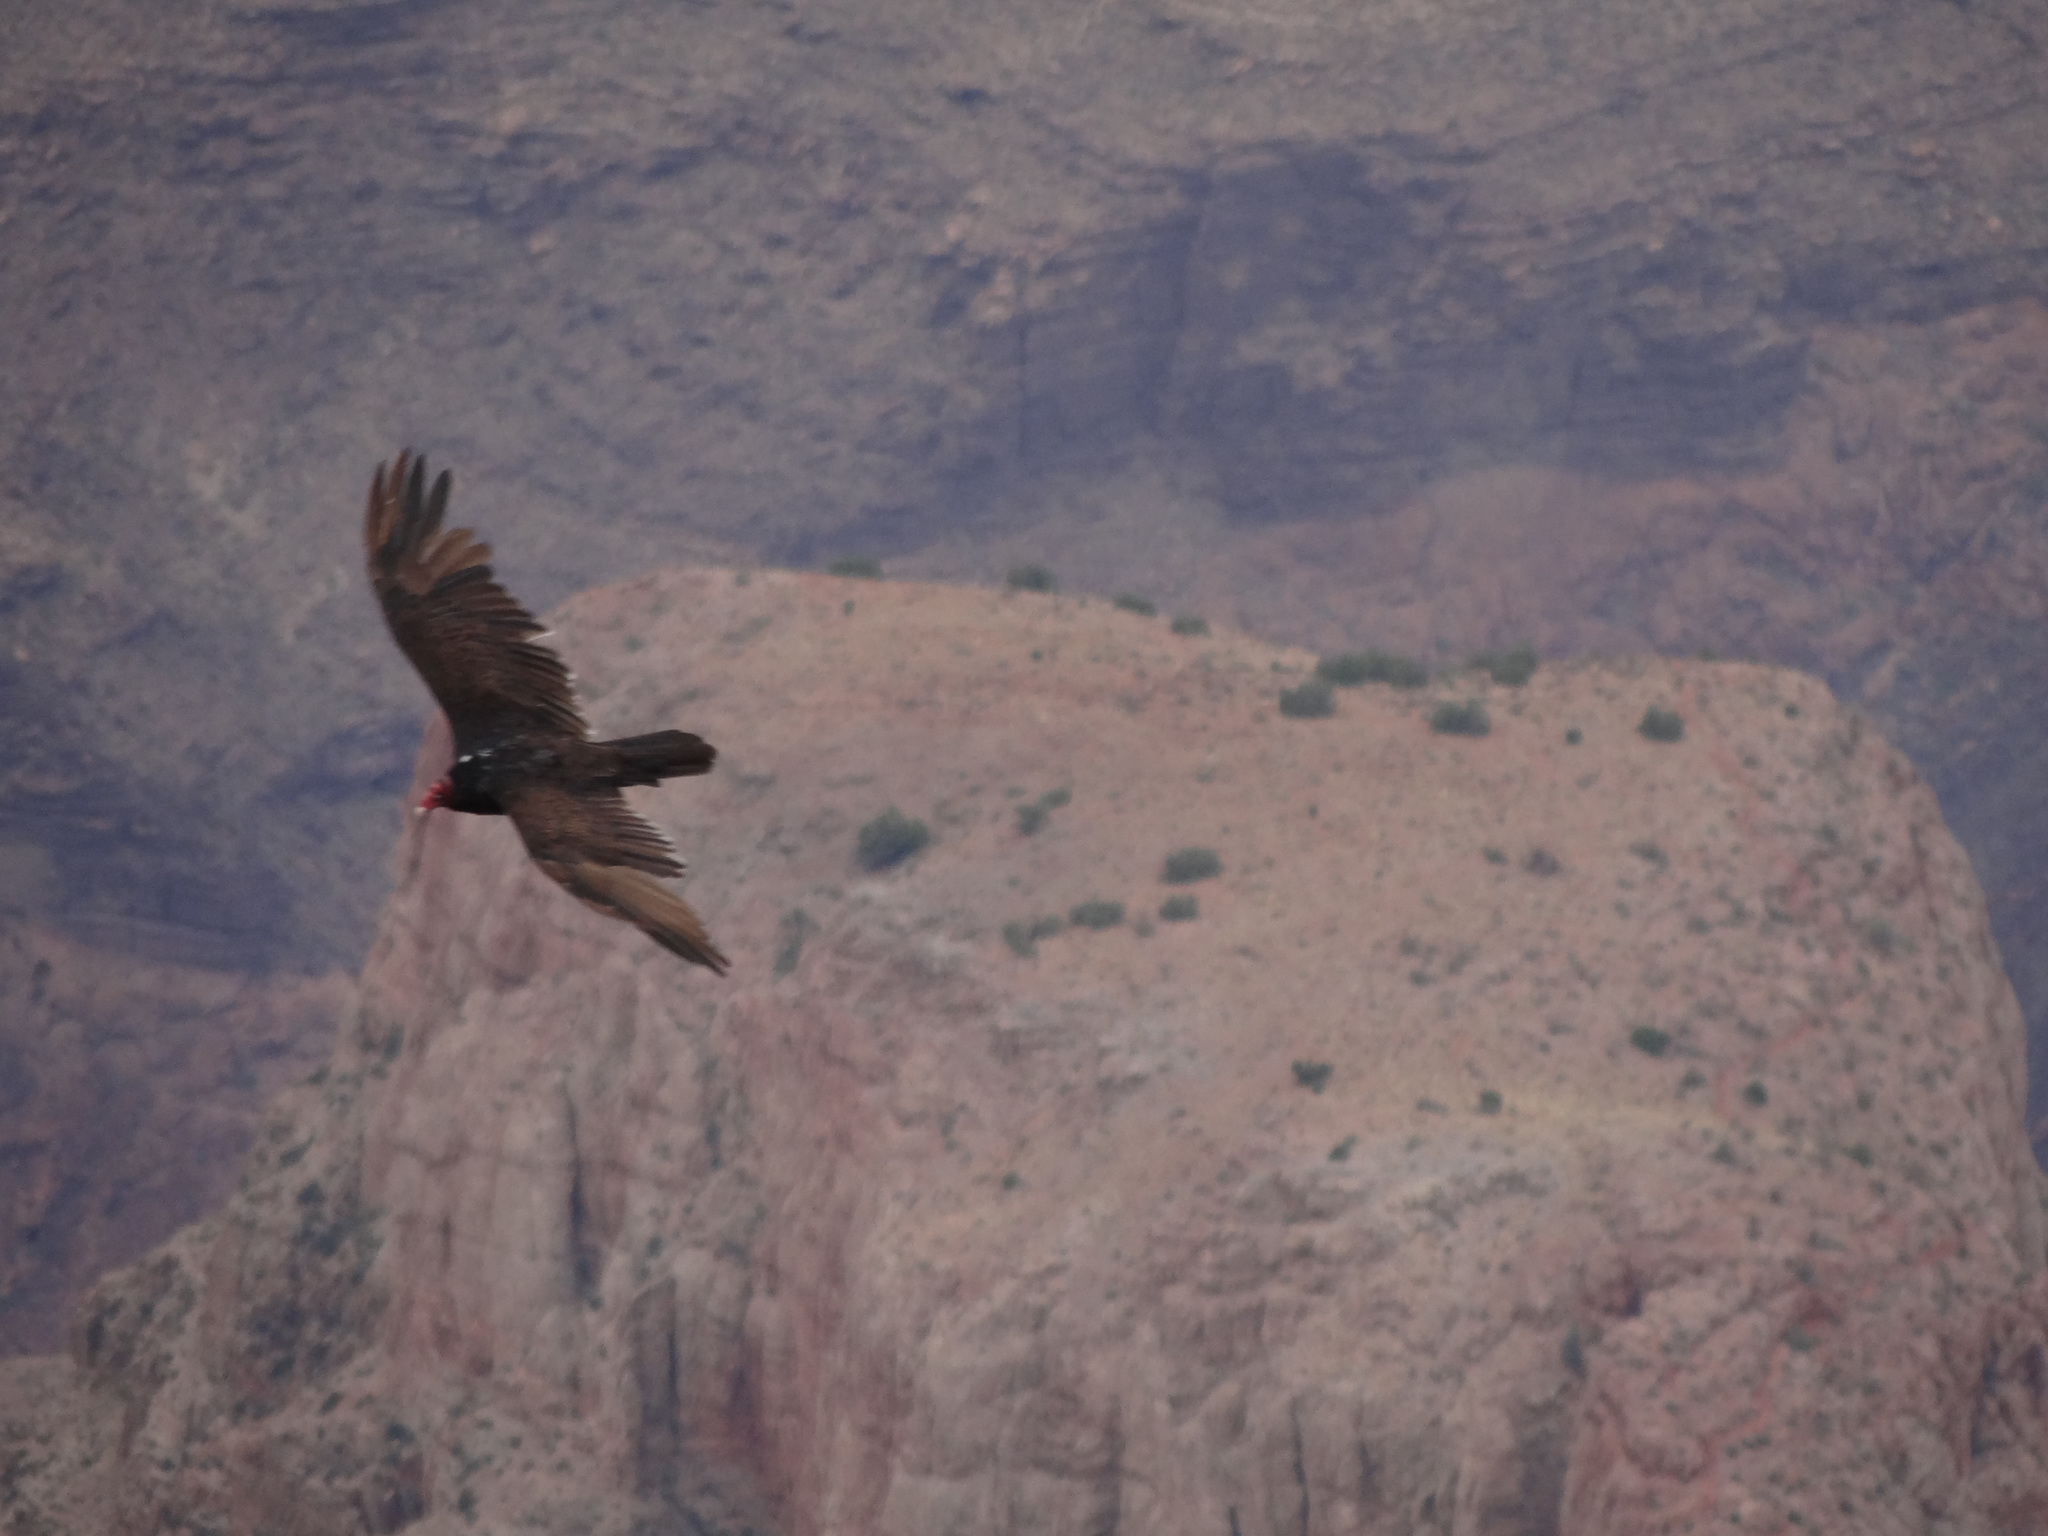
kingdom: Animalia
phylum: Chordata
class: Aves
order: Accipitriformes
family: Cathartidae
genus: Cathartes
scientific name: Cathartes aura
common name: Turkey vulture
